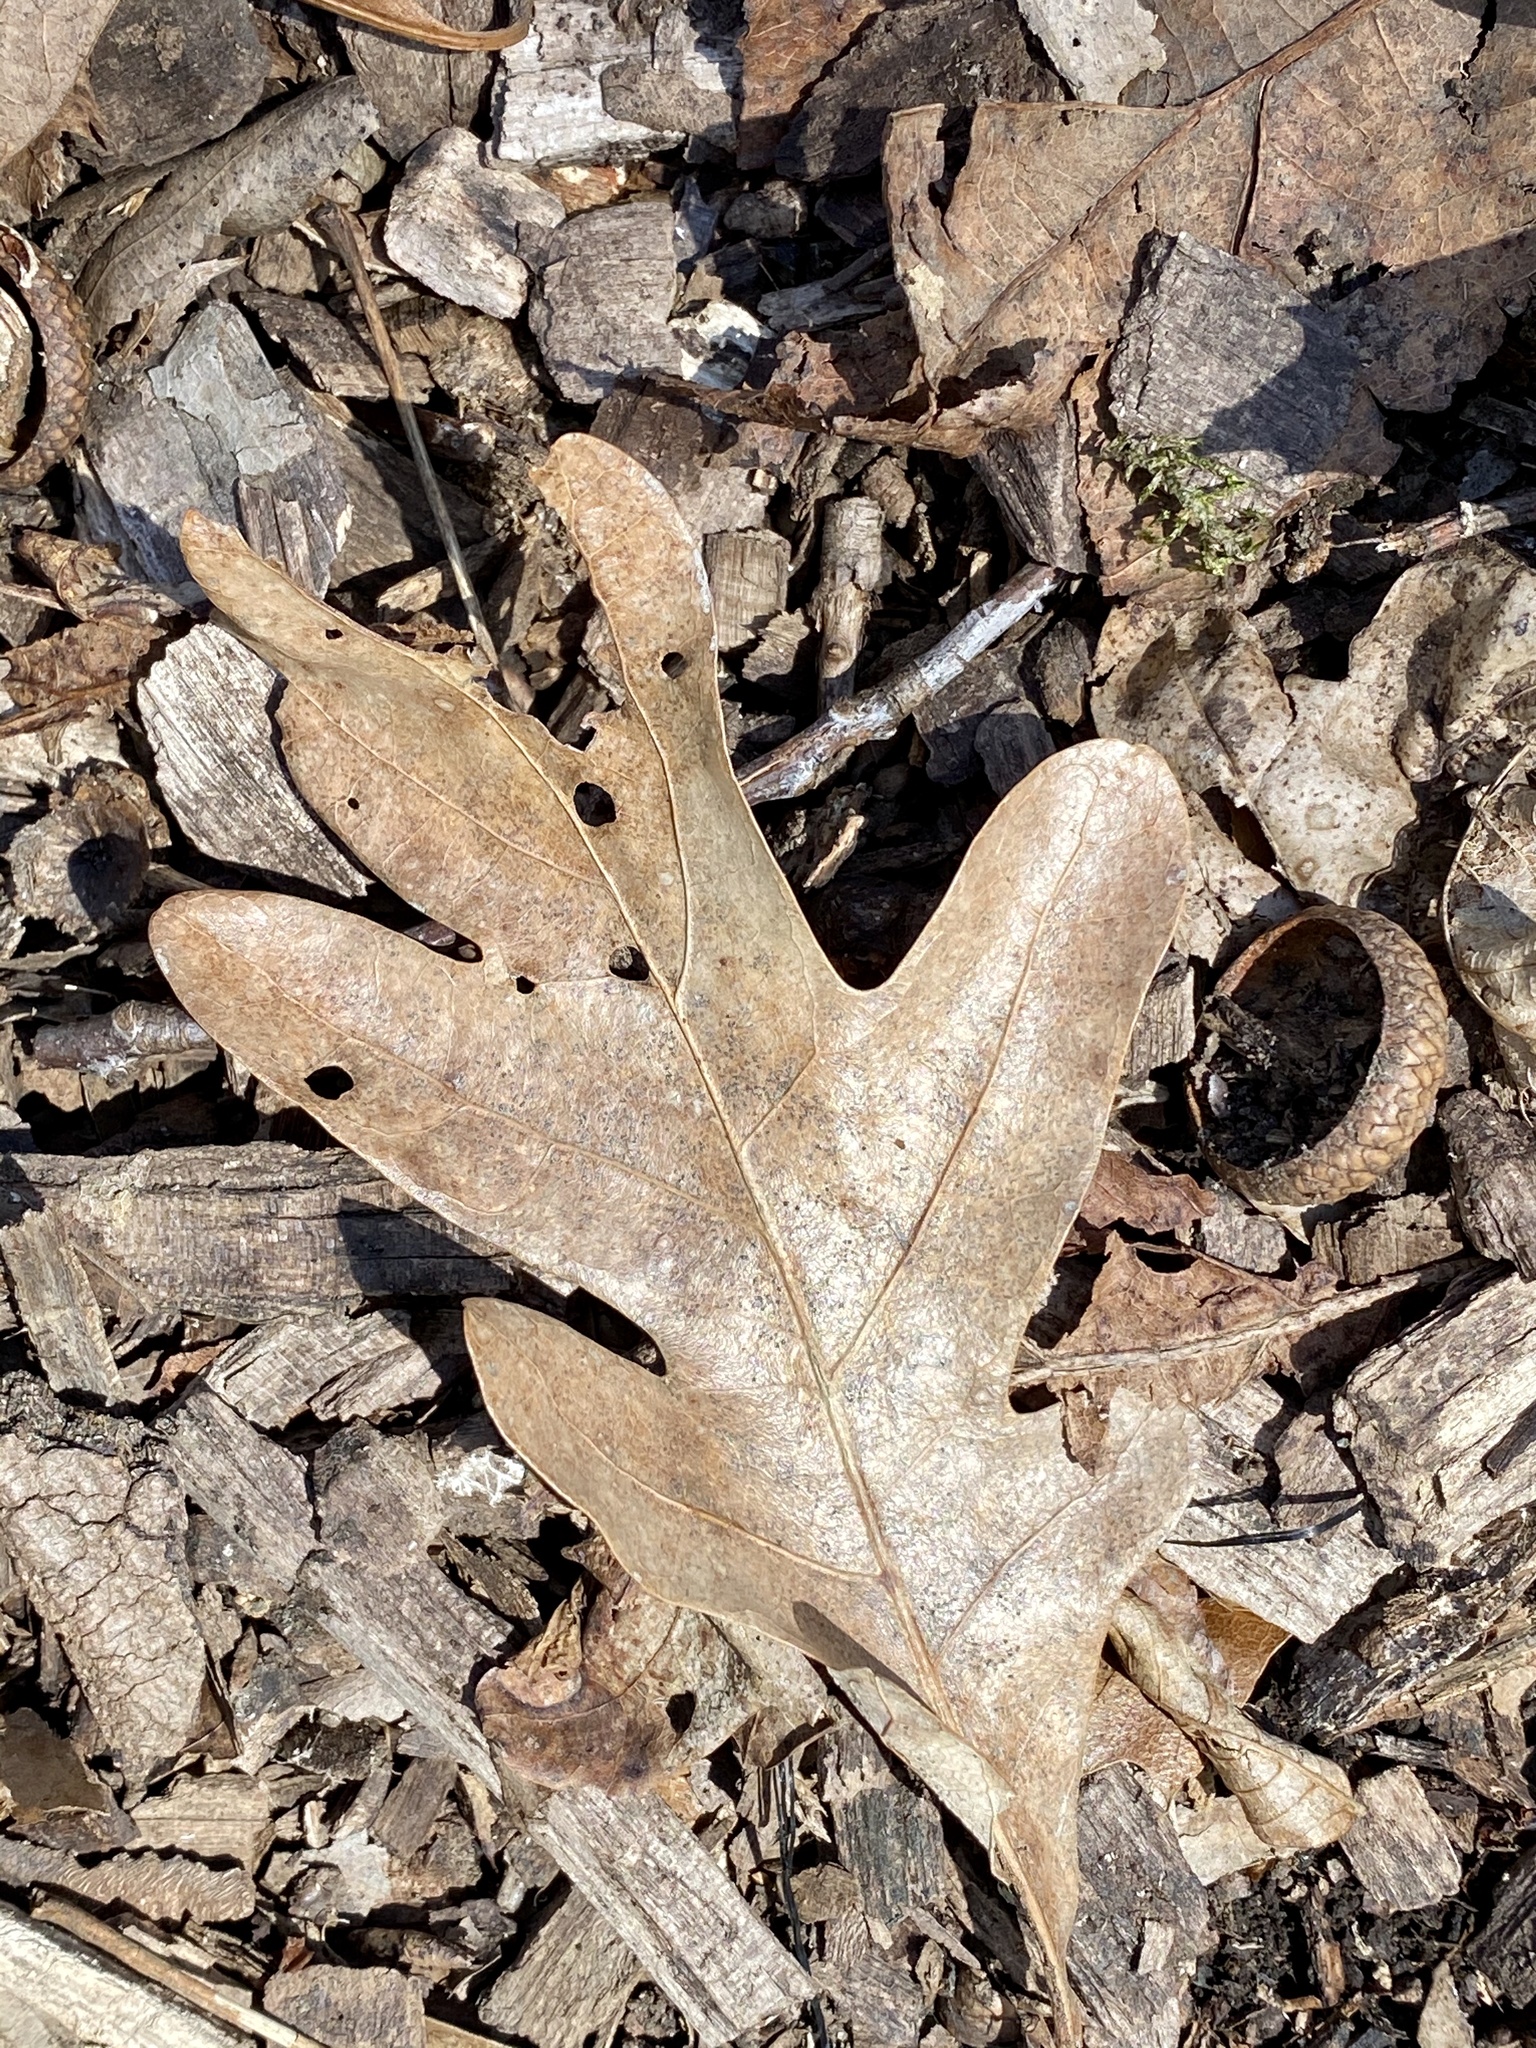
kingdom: Plantae
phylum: Tracheophyta
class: Magnoliopsida
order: Fagales
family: Fagaceae
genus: Quercus
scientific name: Quercus alba
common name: White oak
